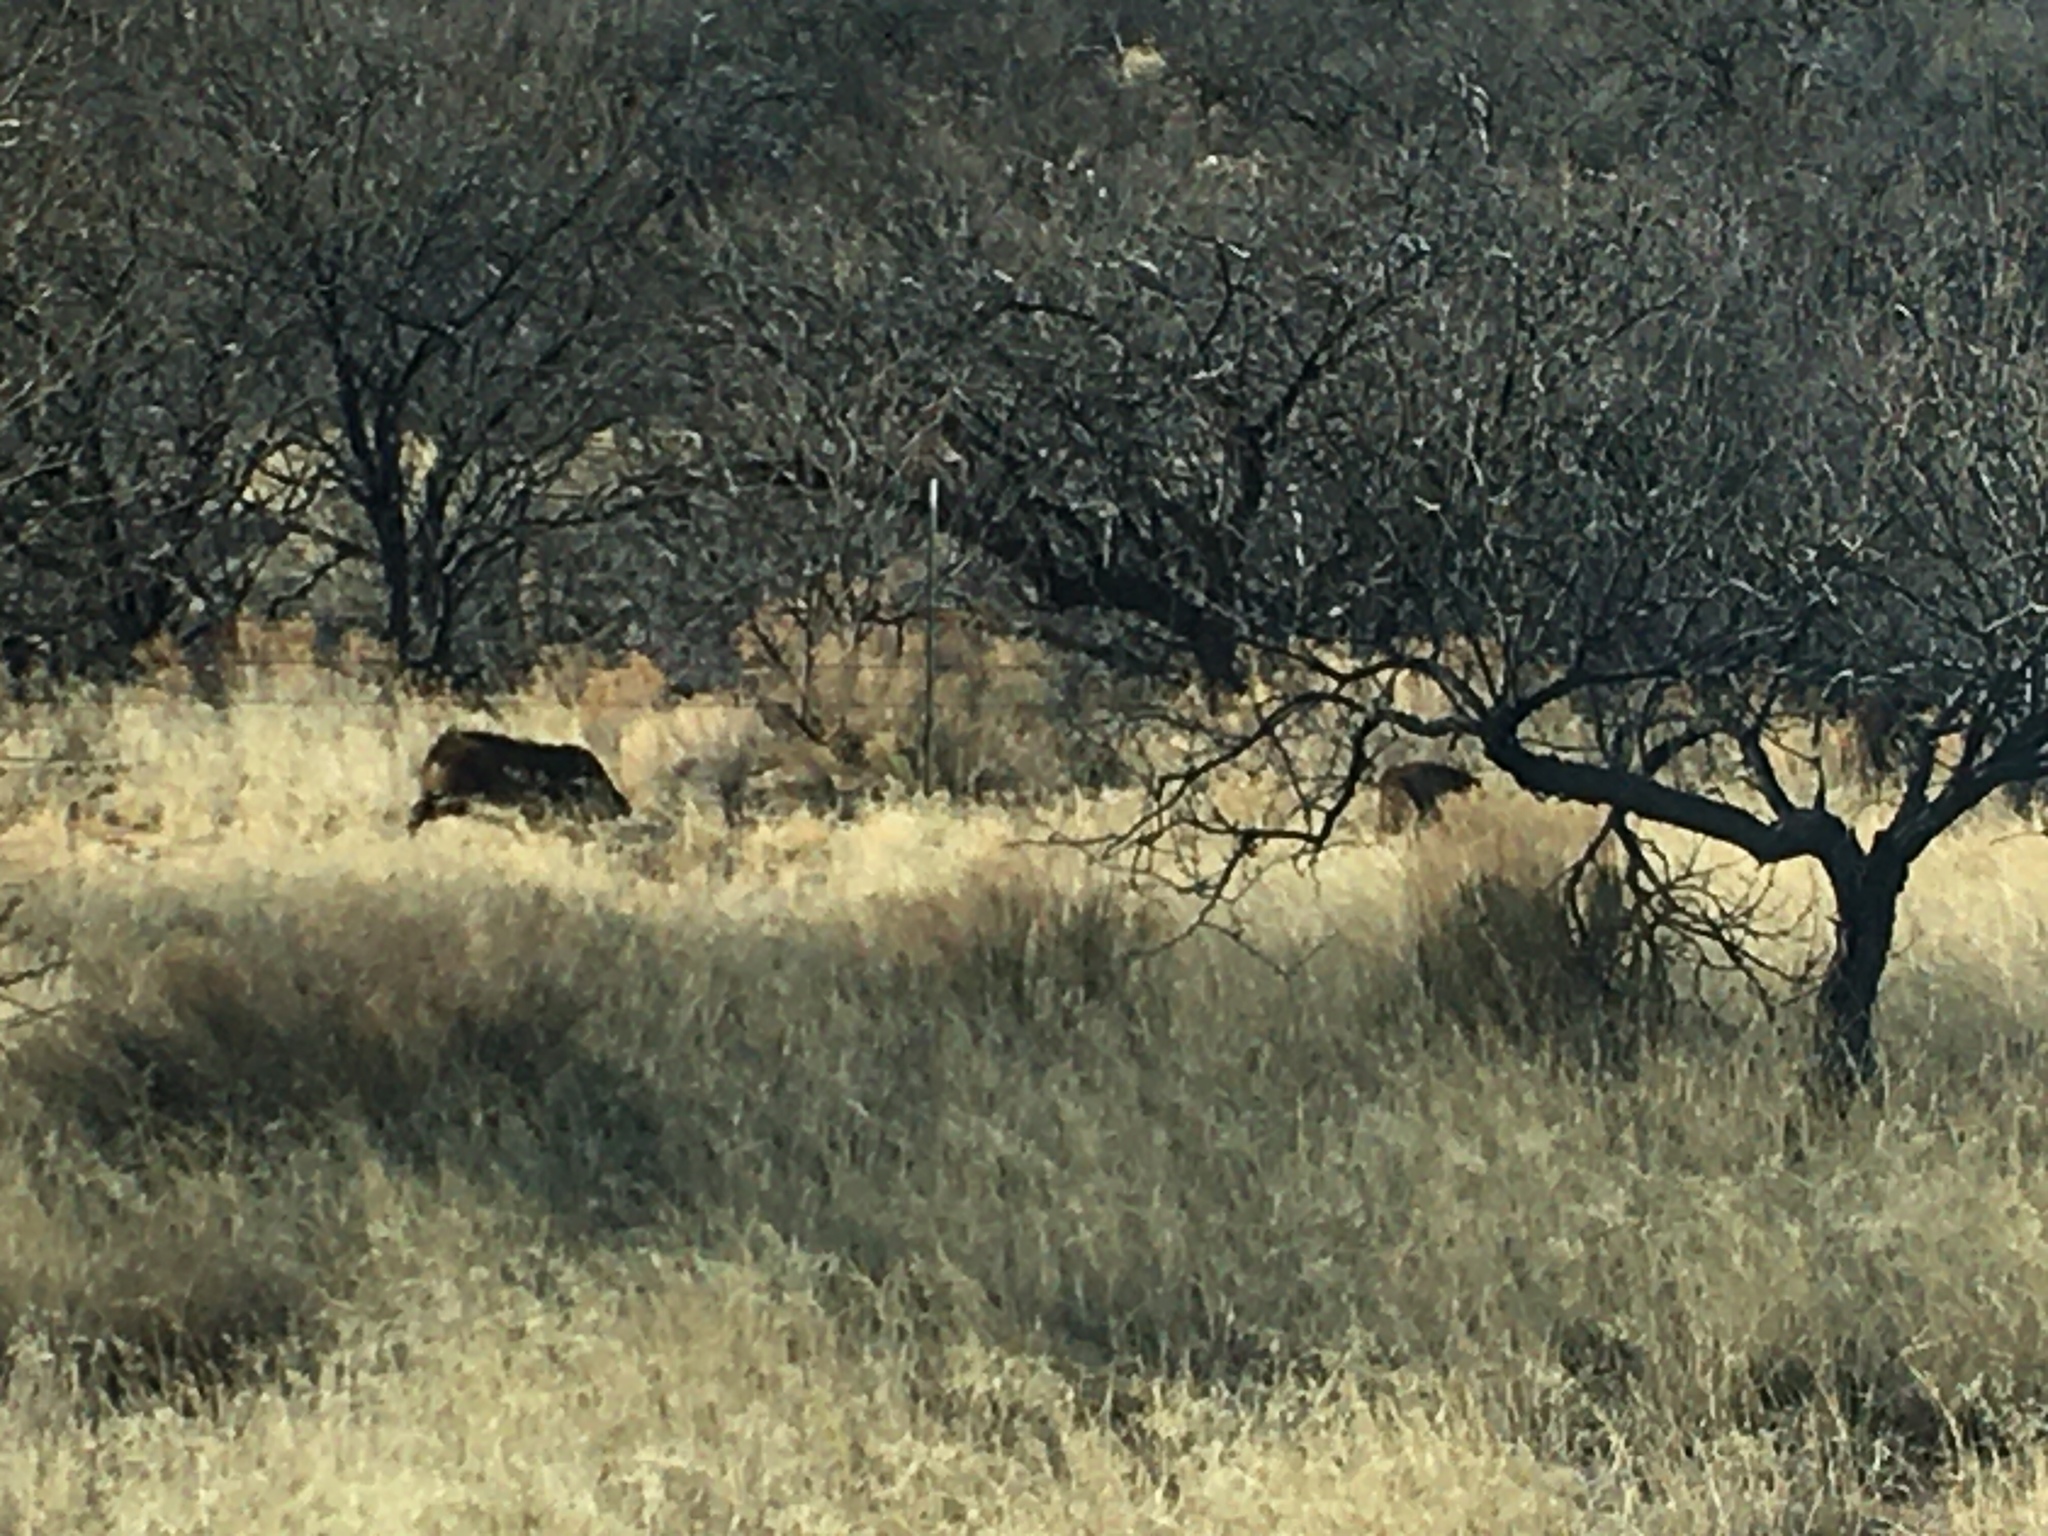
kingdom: Animalia
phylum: Chordata
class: Mammalia
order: Artiodactyla
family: Tayassuidae
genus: Pecari
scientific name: Pecari tajacu
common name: Collared peccary
